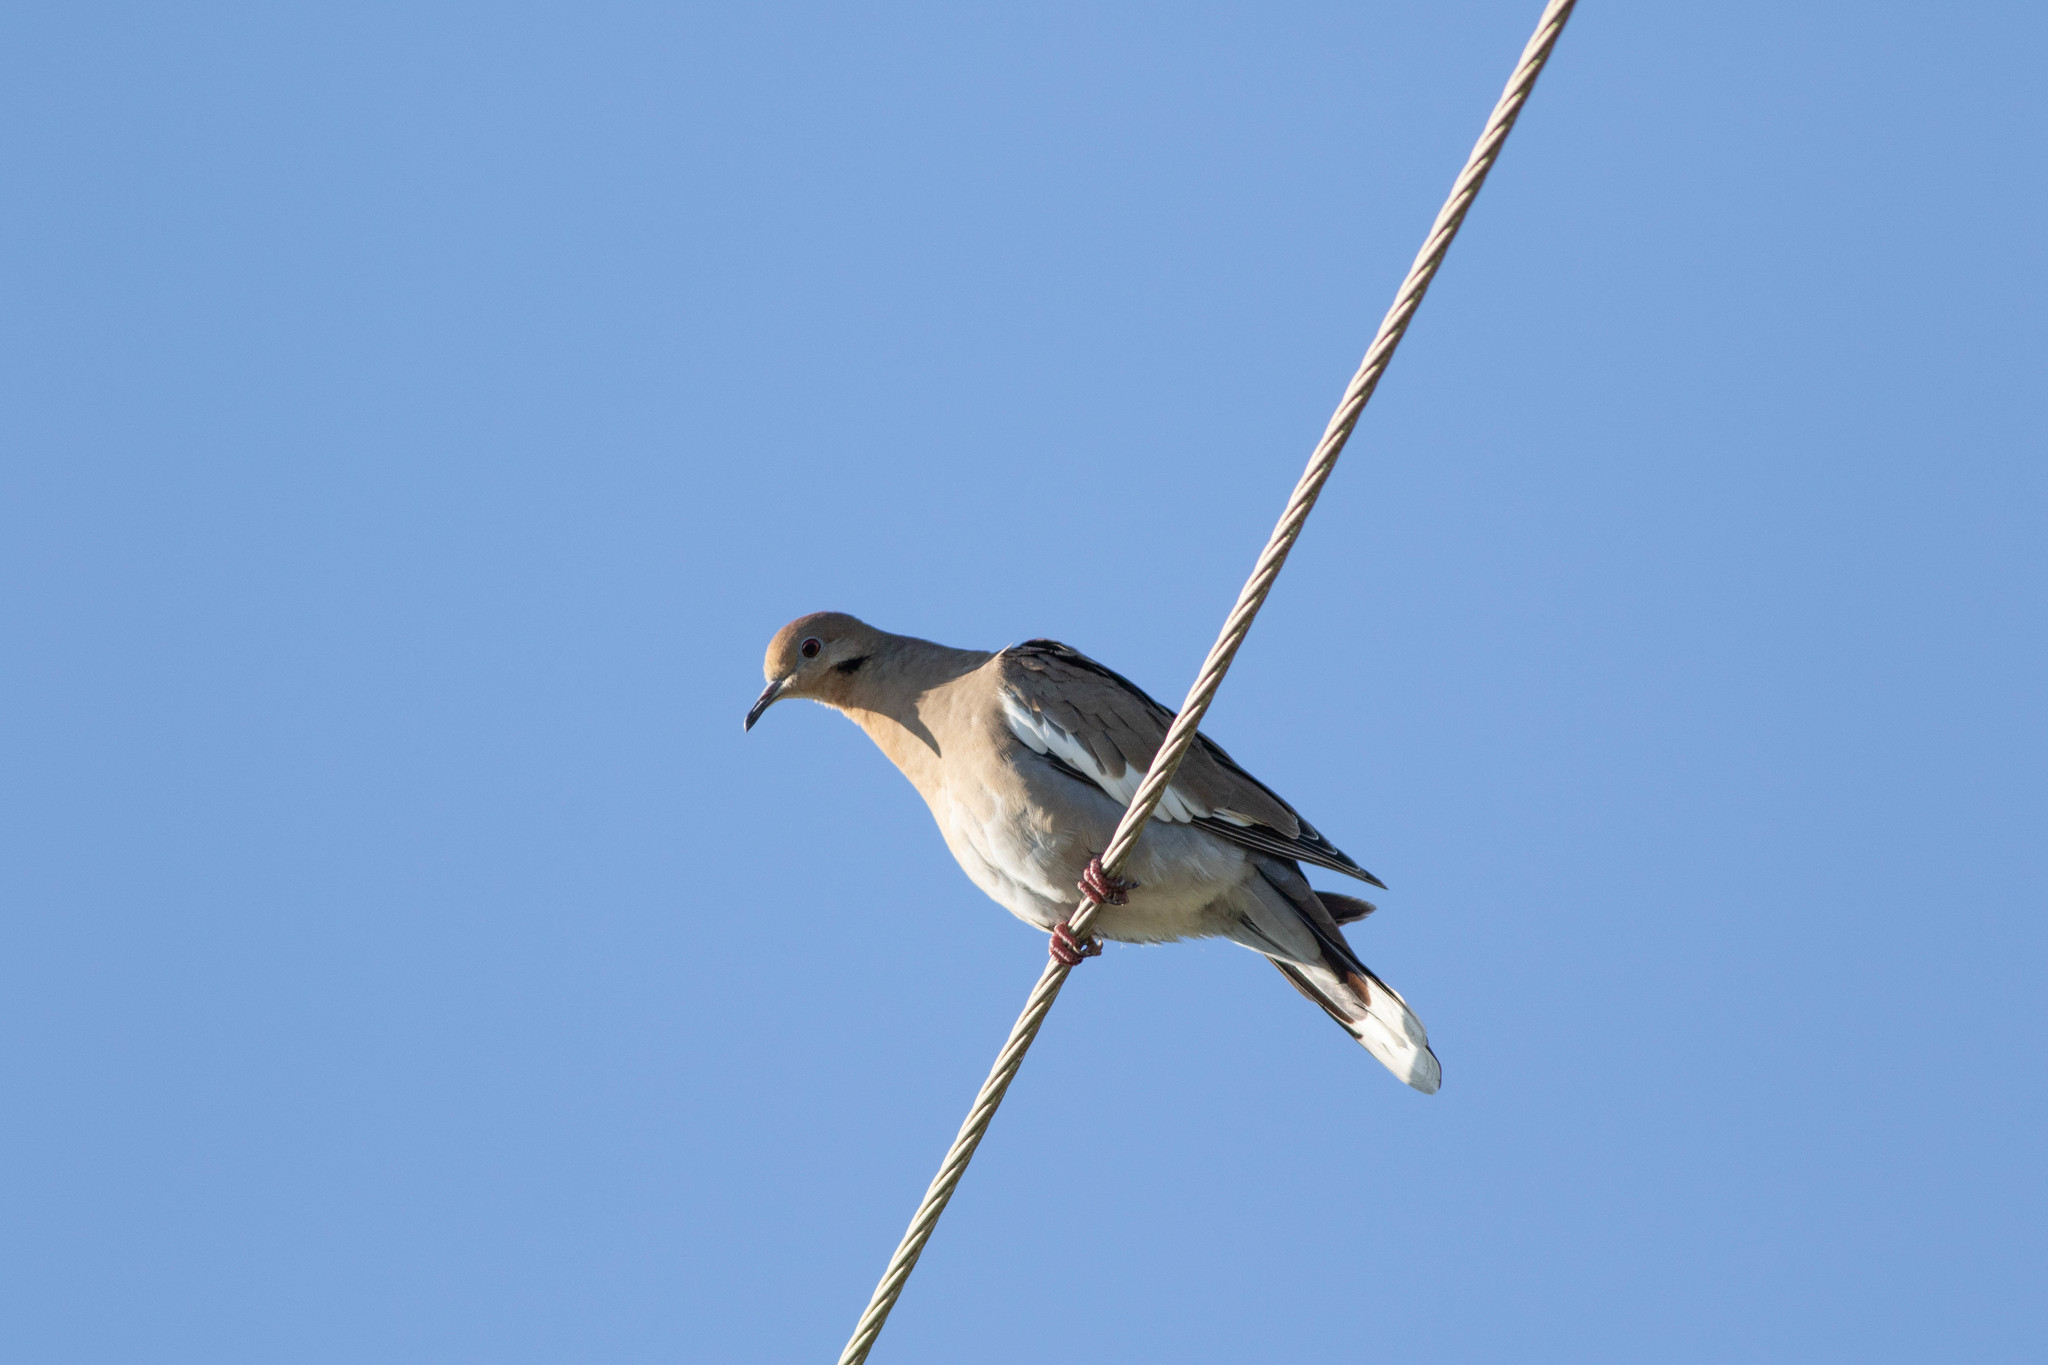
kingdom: Animalia
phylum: Chordata
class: Aves
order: Columbiformes
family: Columbidae
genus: Zenaida
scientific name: Zenaida asiatica
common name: White-winged dove
